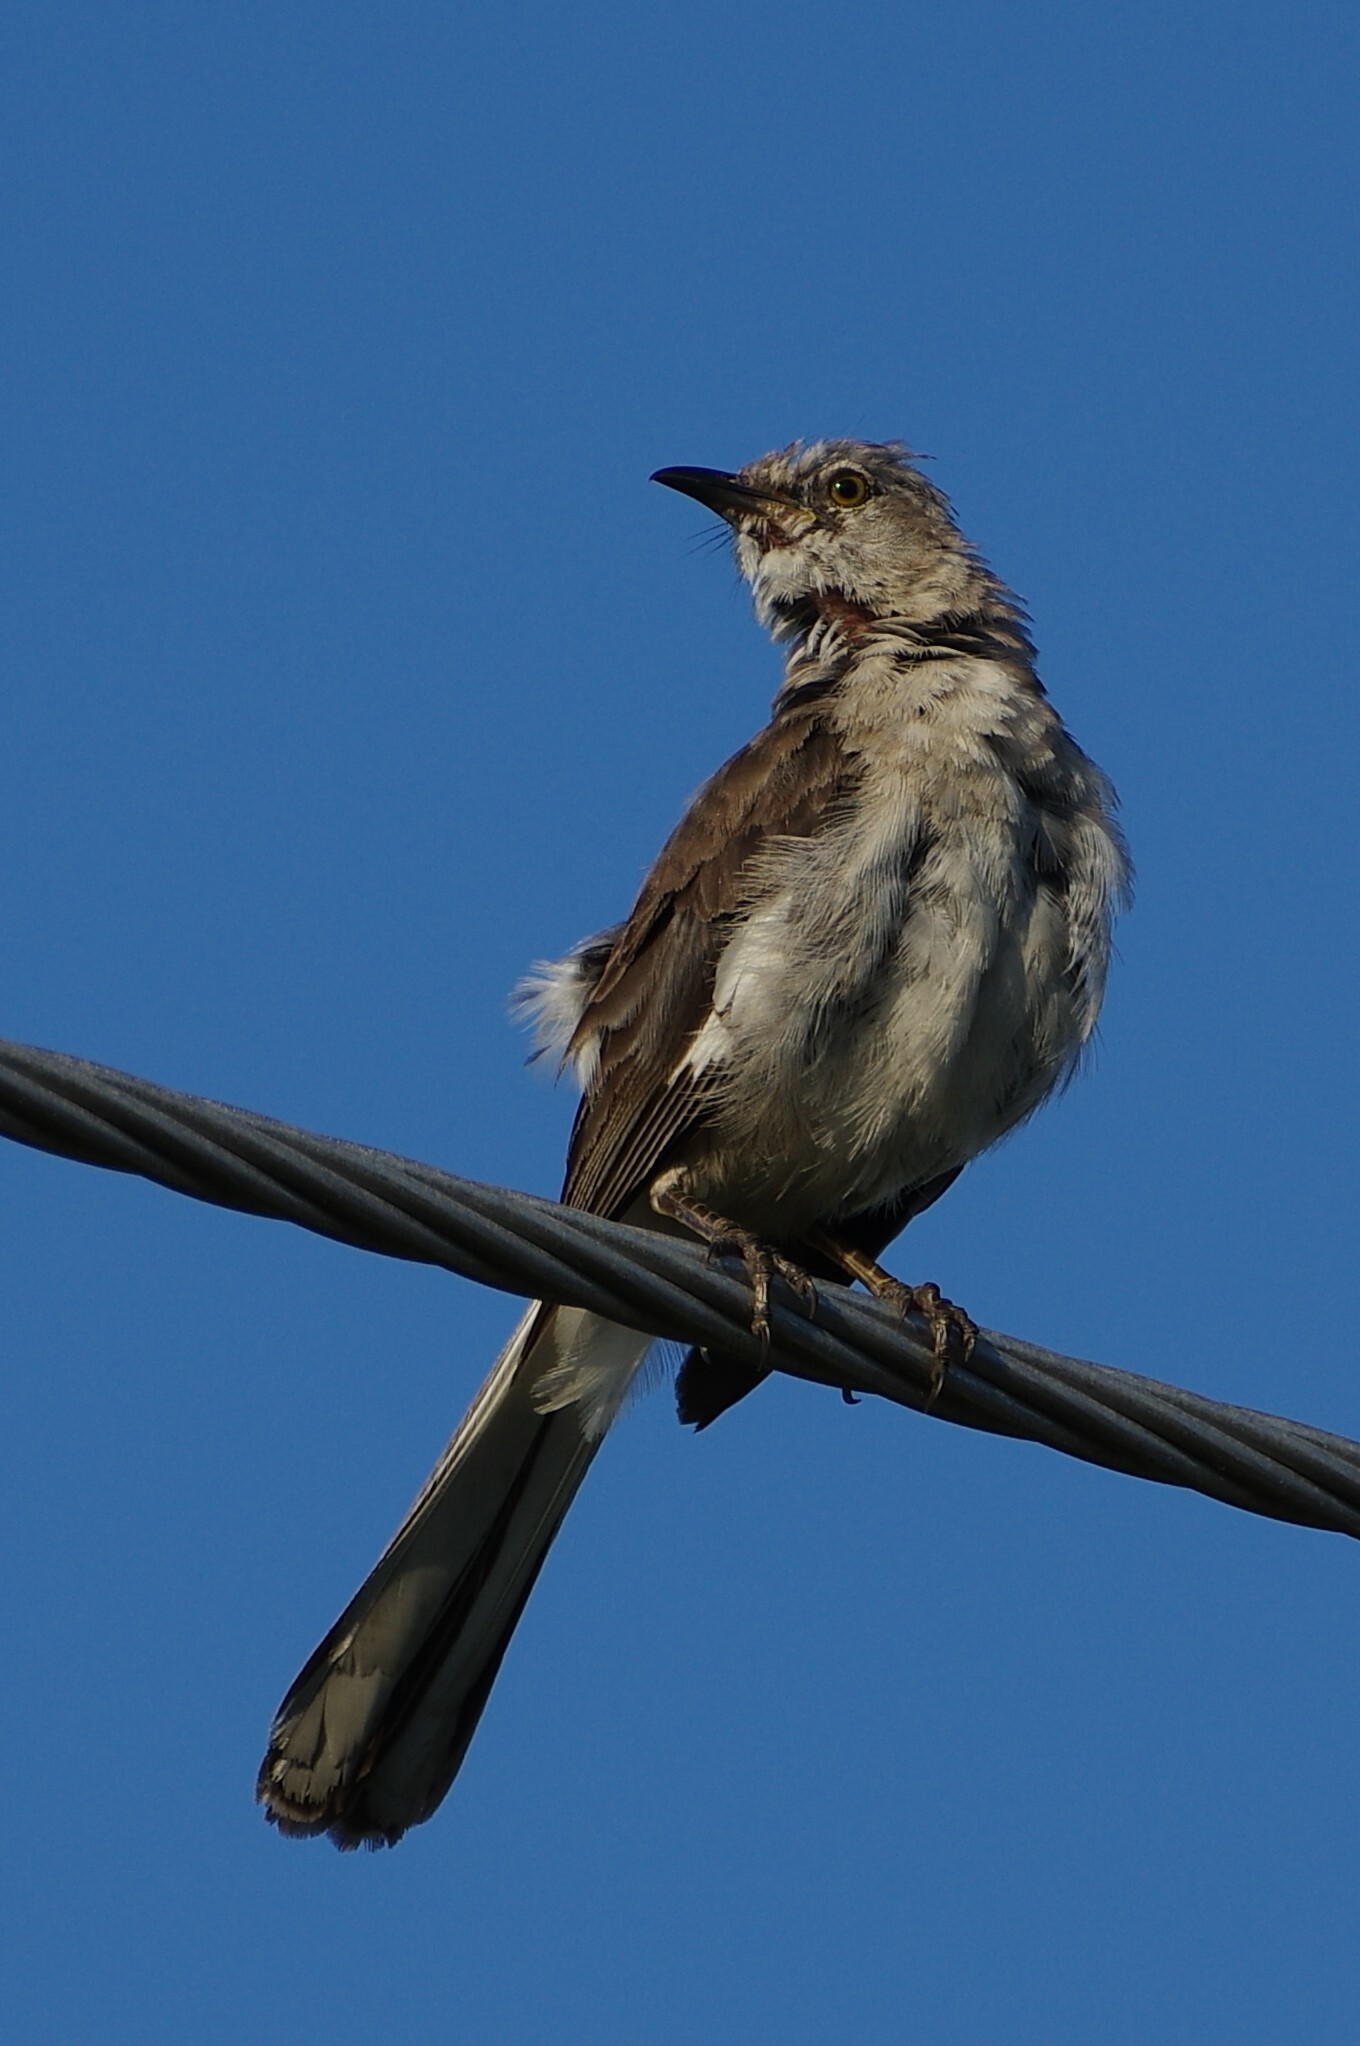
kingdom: Animalia
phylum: Chordata
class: Aves
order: Passeriformes
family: Mimidae
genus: Mimus
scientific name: Mimus polyglottos
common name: Northern mockingbird
